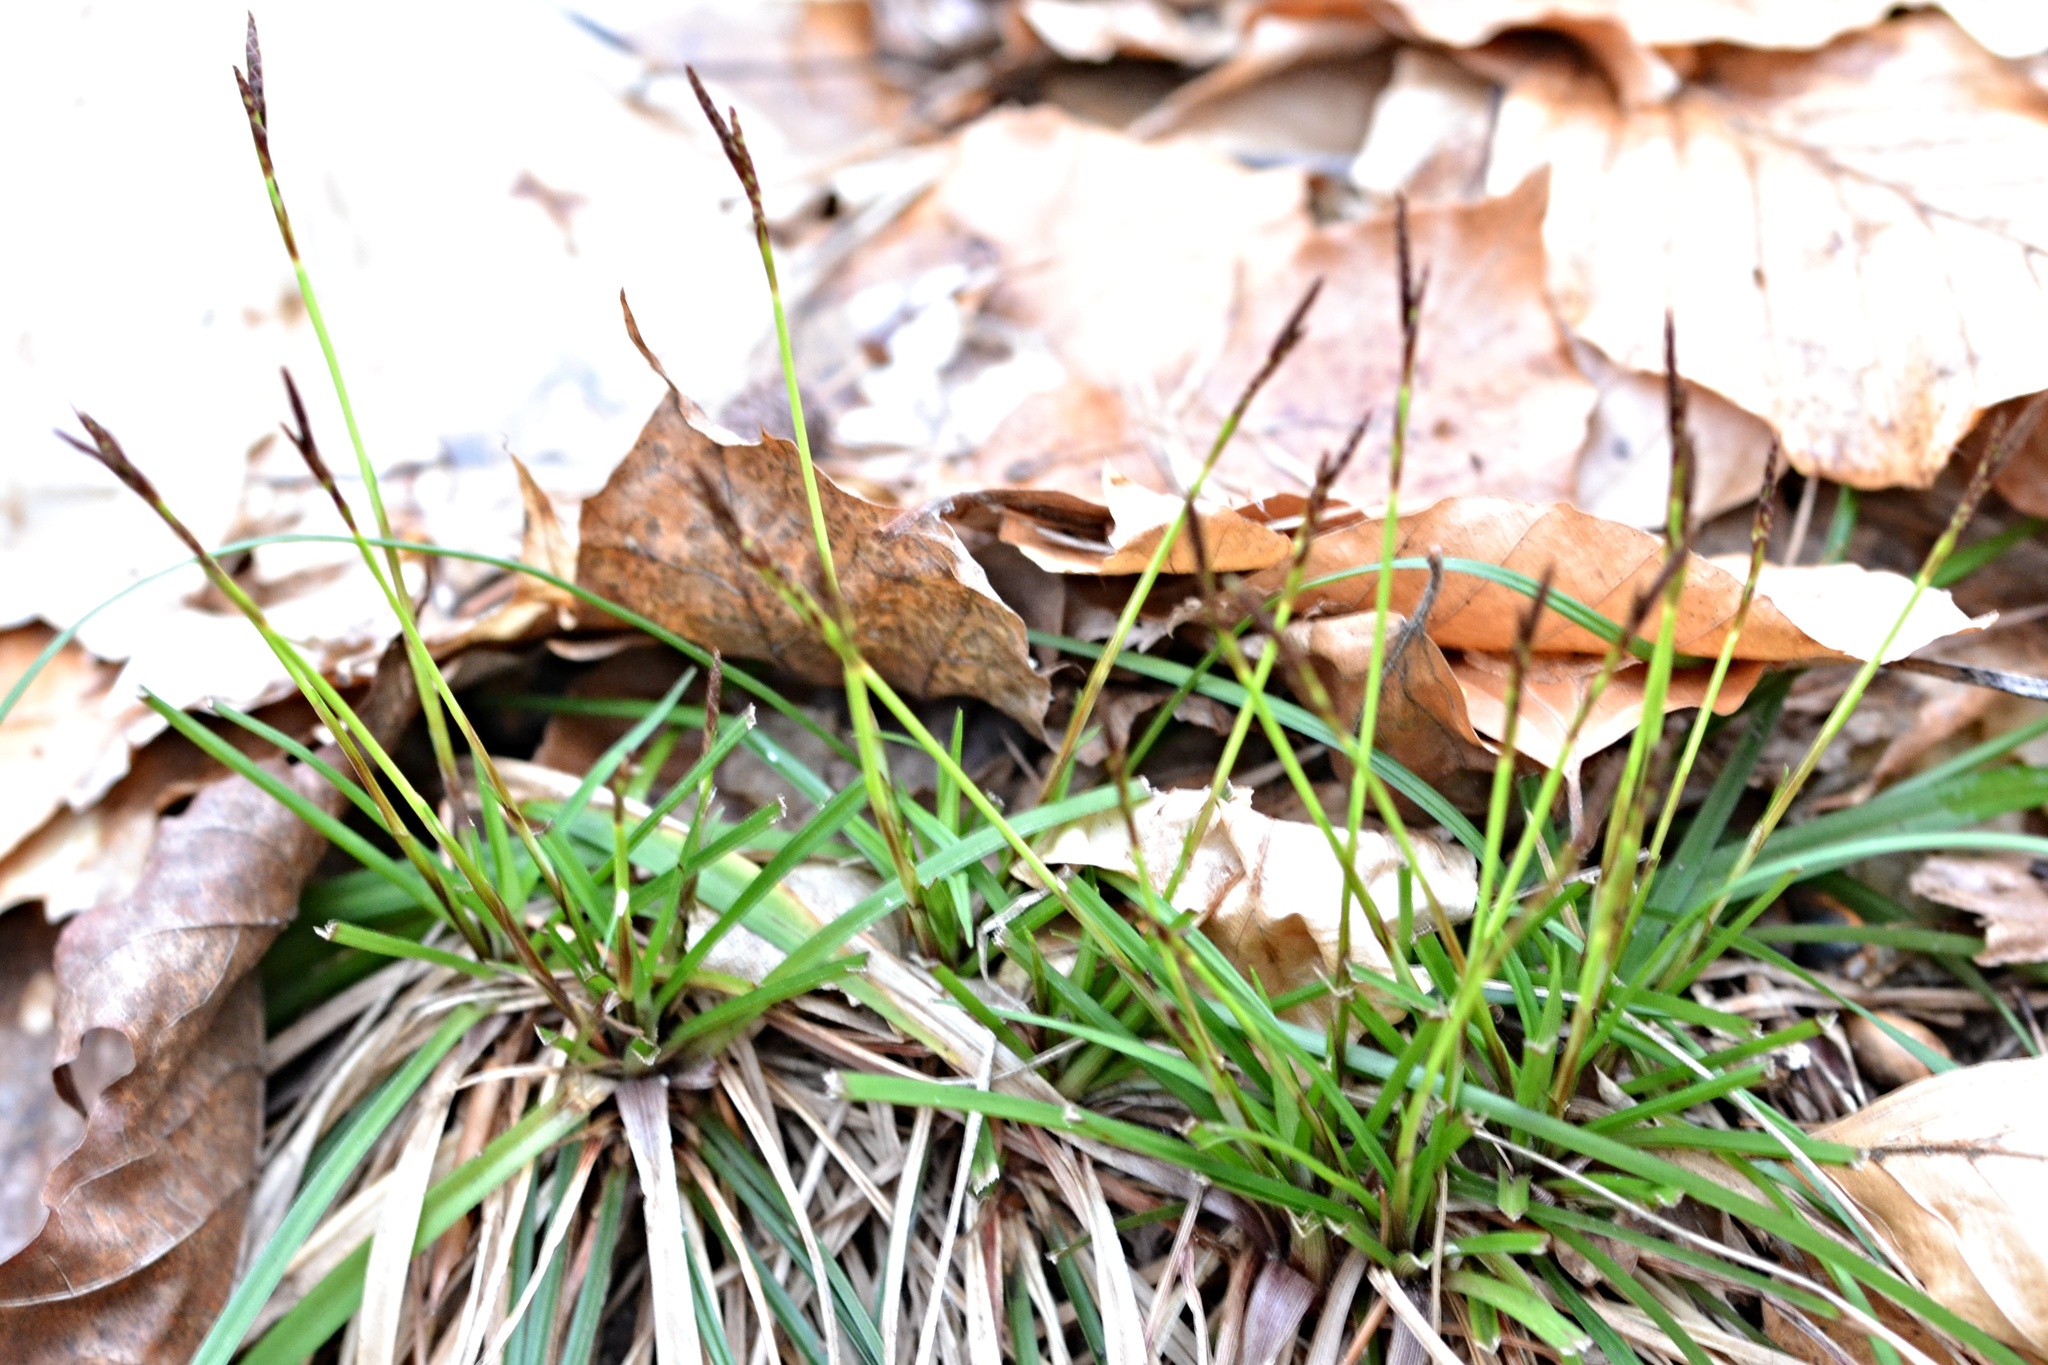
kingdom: Plantae
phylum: Tracheophyta
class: Liliopsida
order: Poales
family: Cyperaceae
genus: Carex
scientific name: Carex digitata
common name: Fingered sedge
